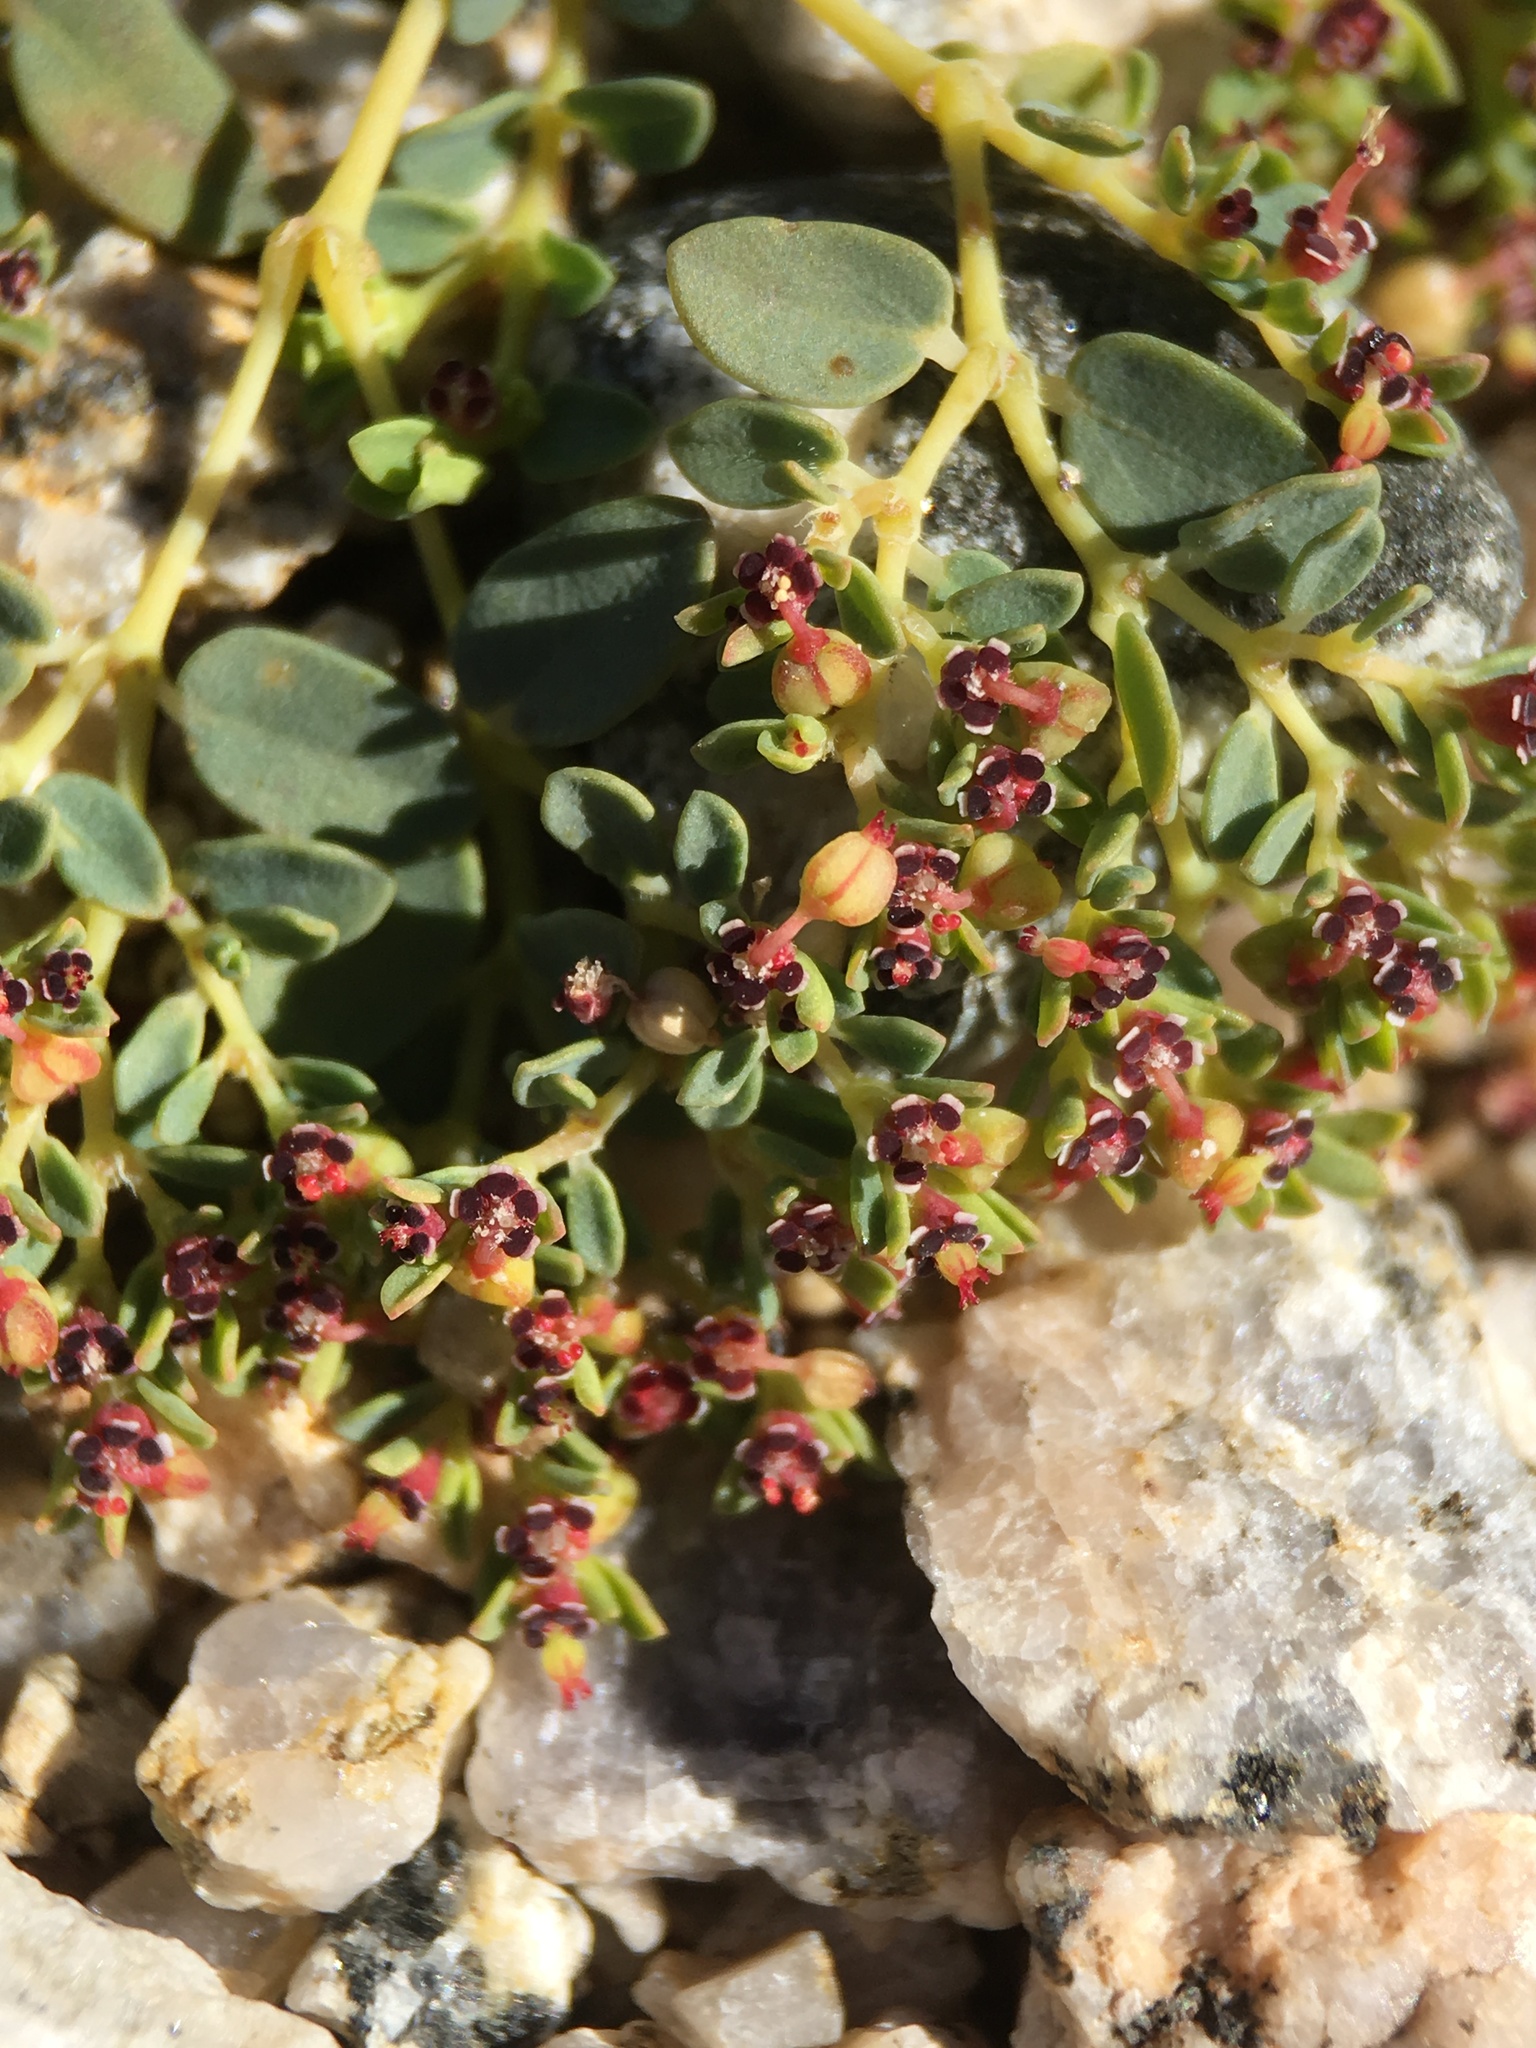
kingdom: Plantae
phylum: Tracheophyta
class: Magnoliopsida
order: Malpighiales
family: Euphorbiaceae
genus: Euphorbia
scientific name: Euphorbia polycarpa
